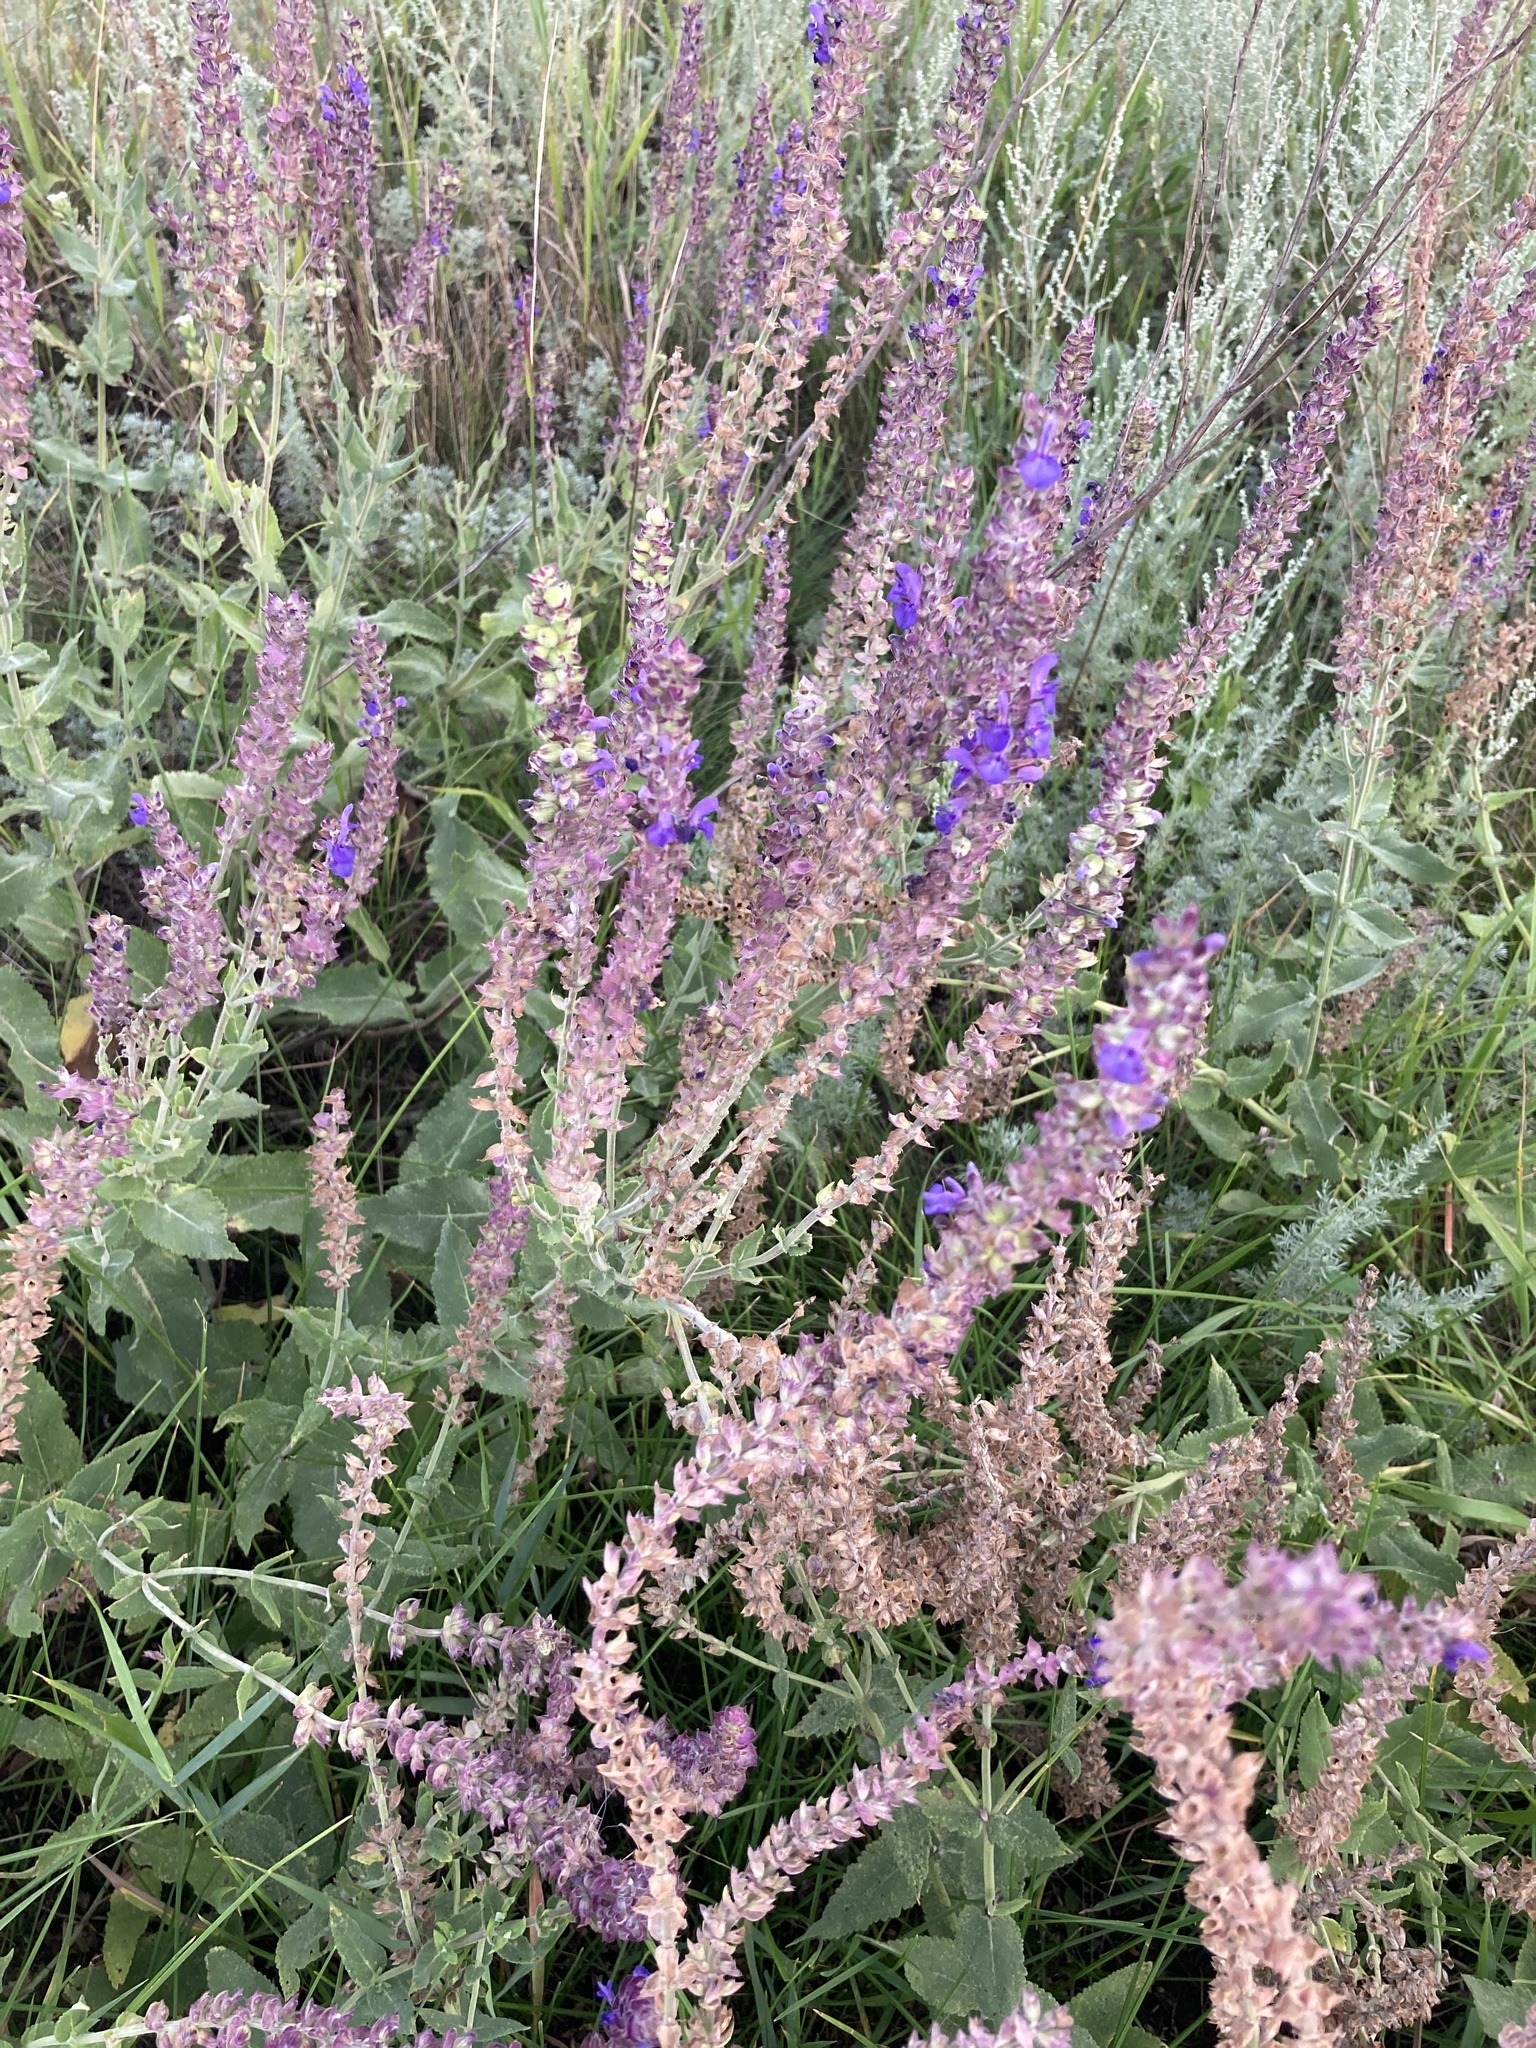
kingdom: Plantae
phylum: Tracheophyta
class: Magnoliopsida
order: Lamiales
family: Lamiaceae
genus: Salvia
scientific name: Salvia nemorosa
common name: Balkan clary
